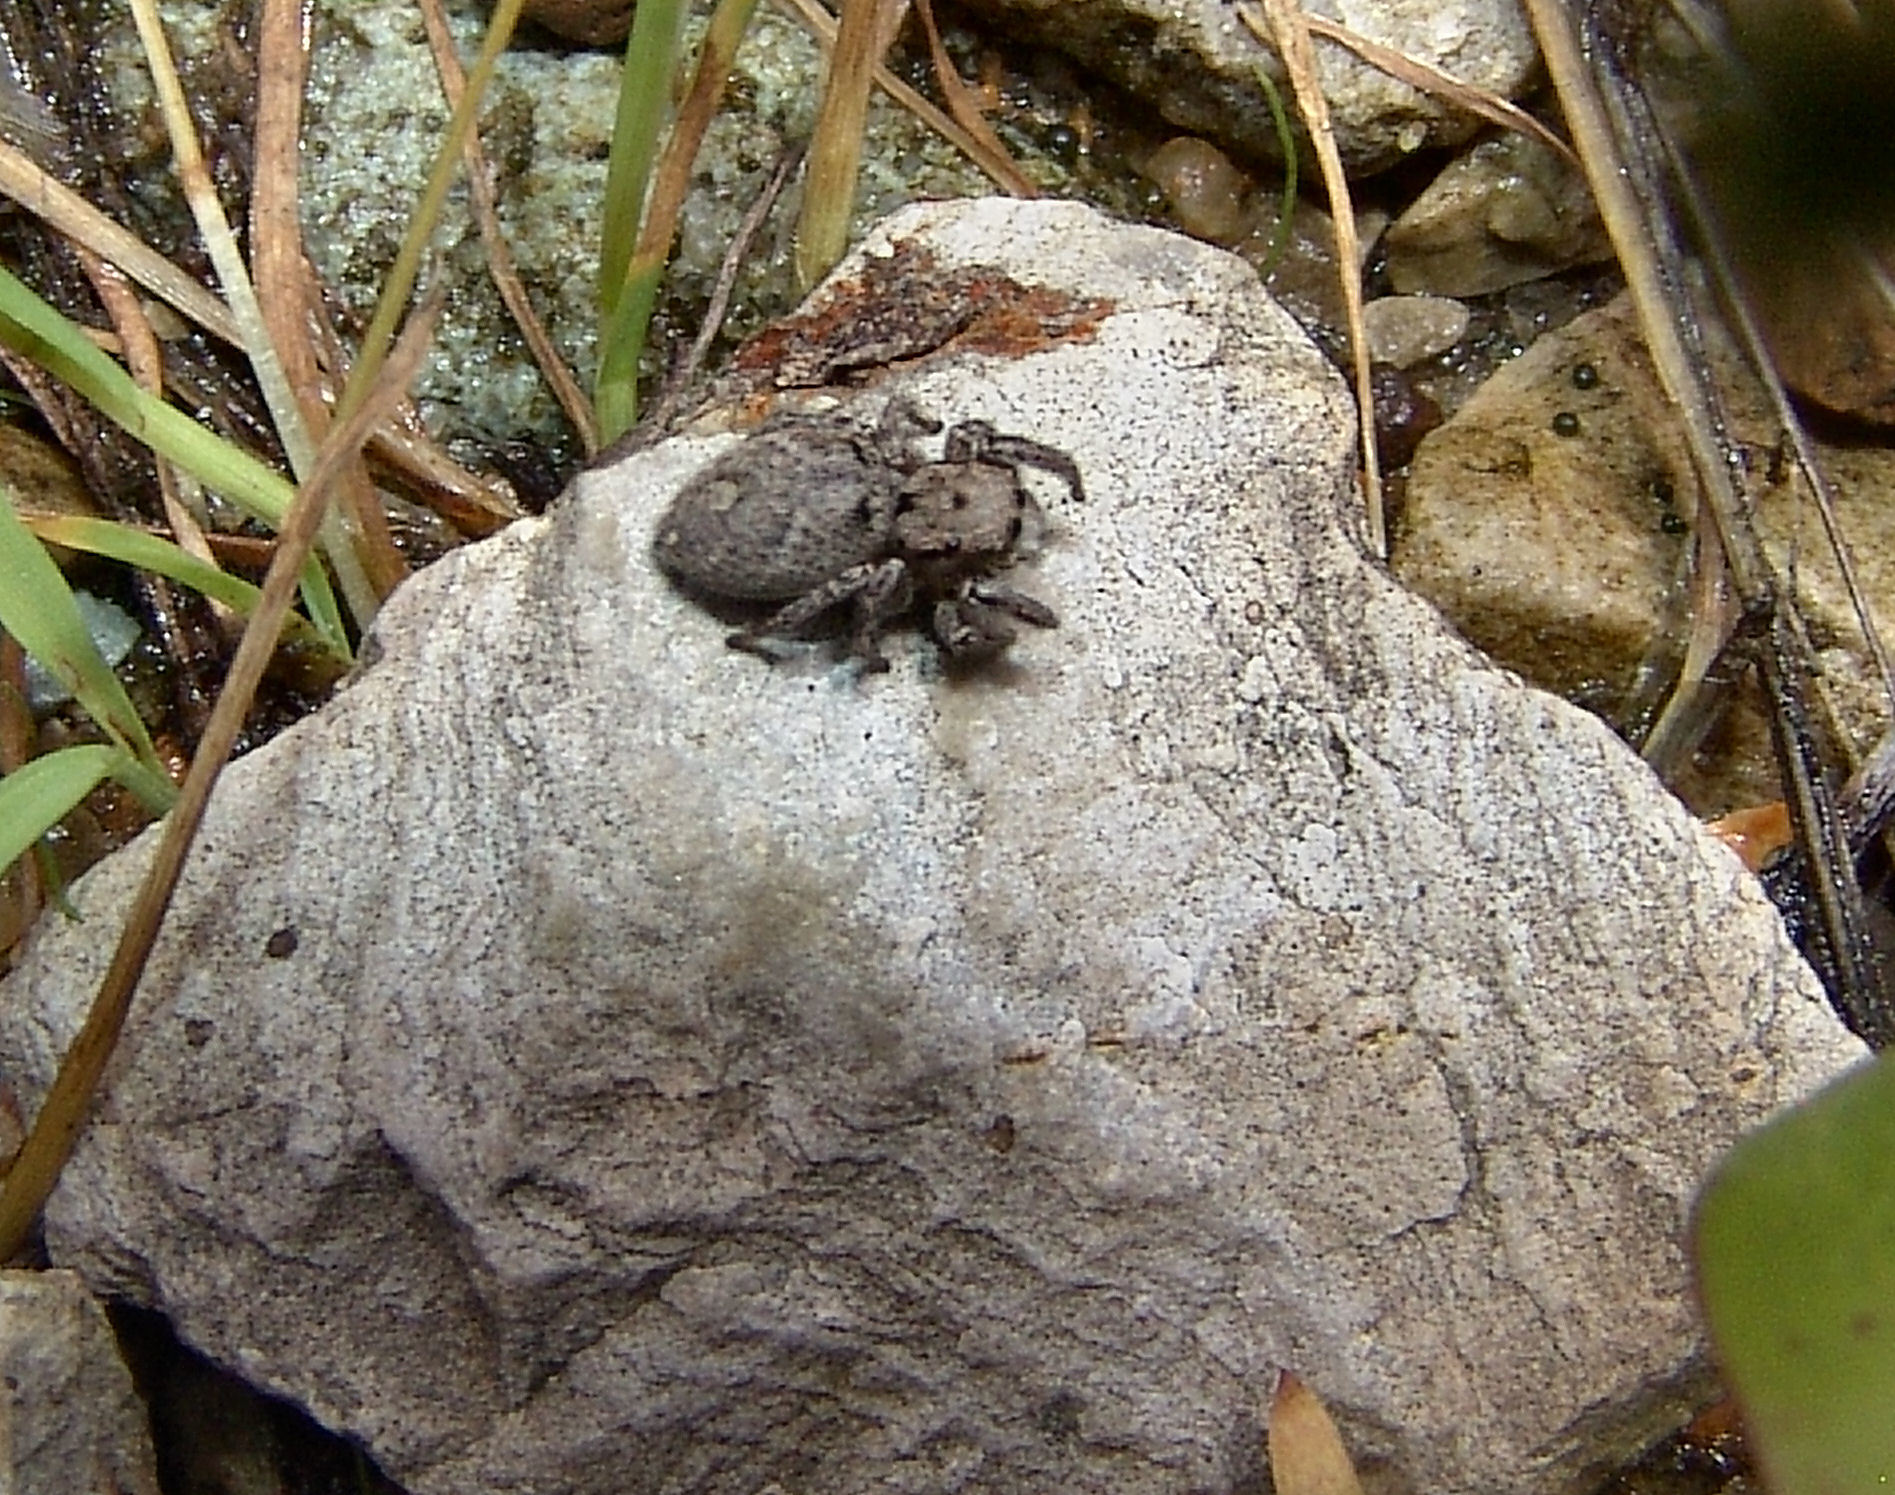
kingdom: Animalia
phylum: Arthropoda
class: Arachnida
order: Araneae
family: Salticidae
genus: Habronattus
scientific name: Habronattus coecatus
